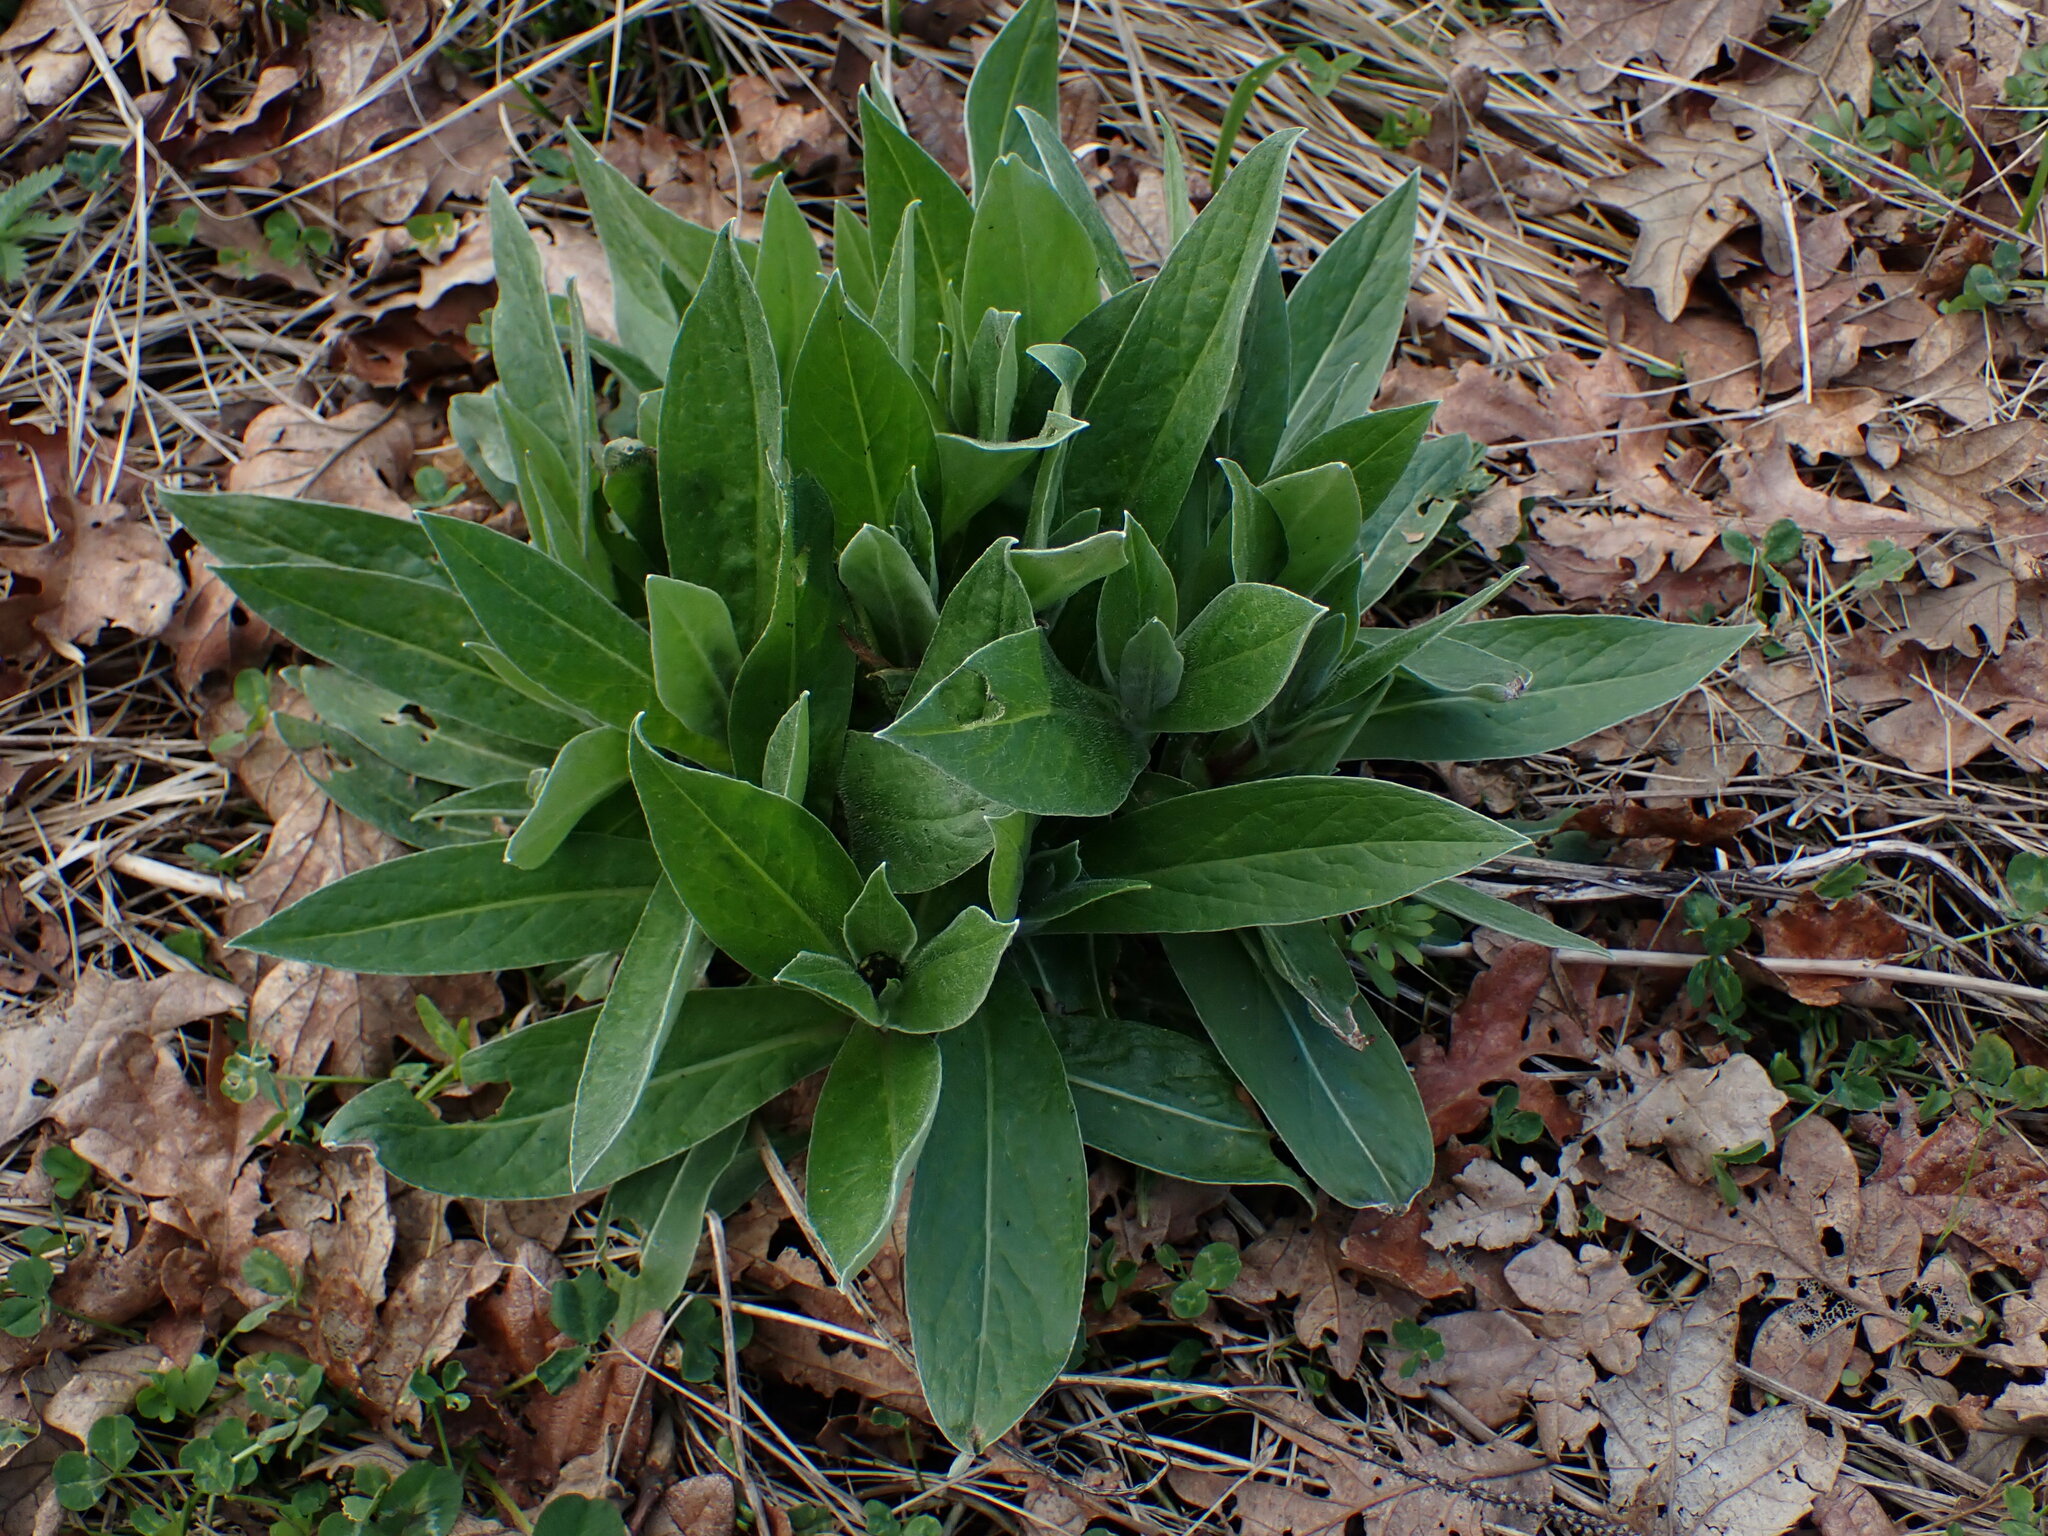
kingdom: Plantae
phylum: Tracheophyta
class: Magnoliopsida
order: Brassicales
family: Brassicaceae
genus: Hesperis
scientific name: Hesperis matronalis
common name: Dame's-violet
